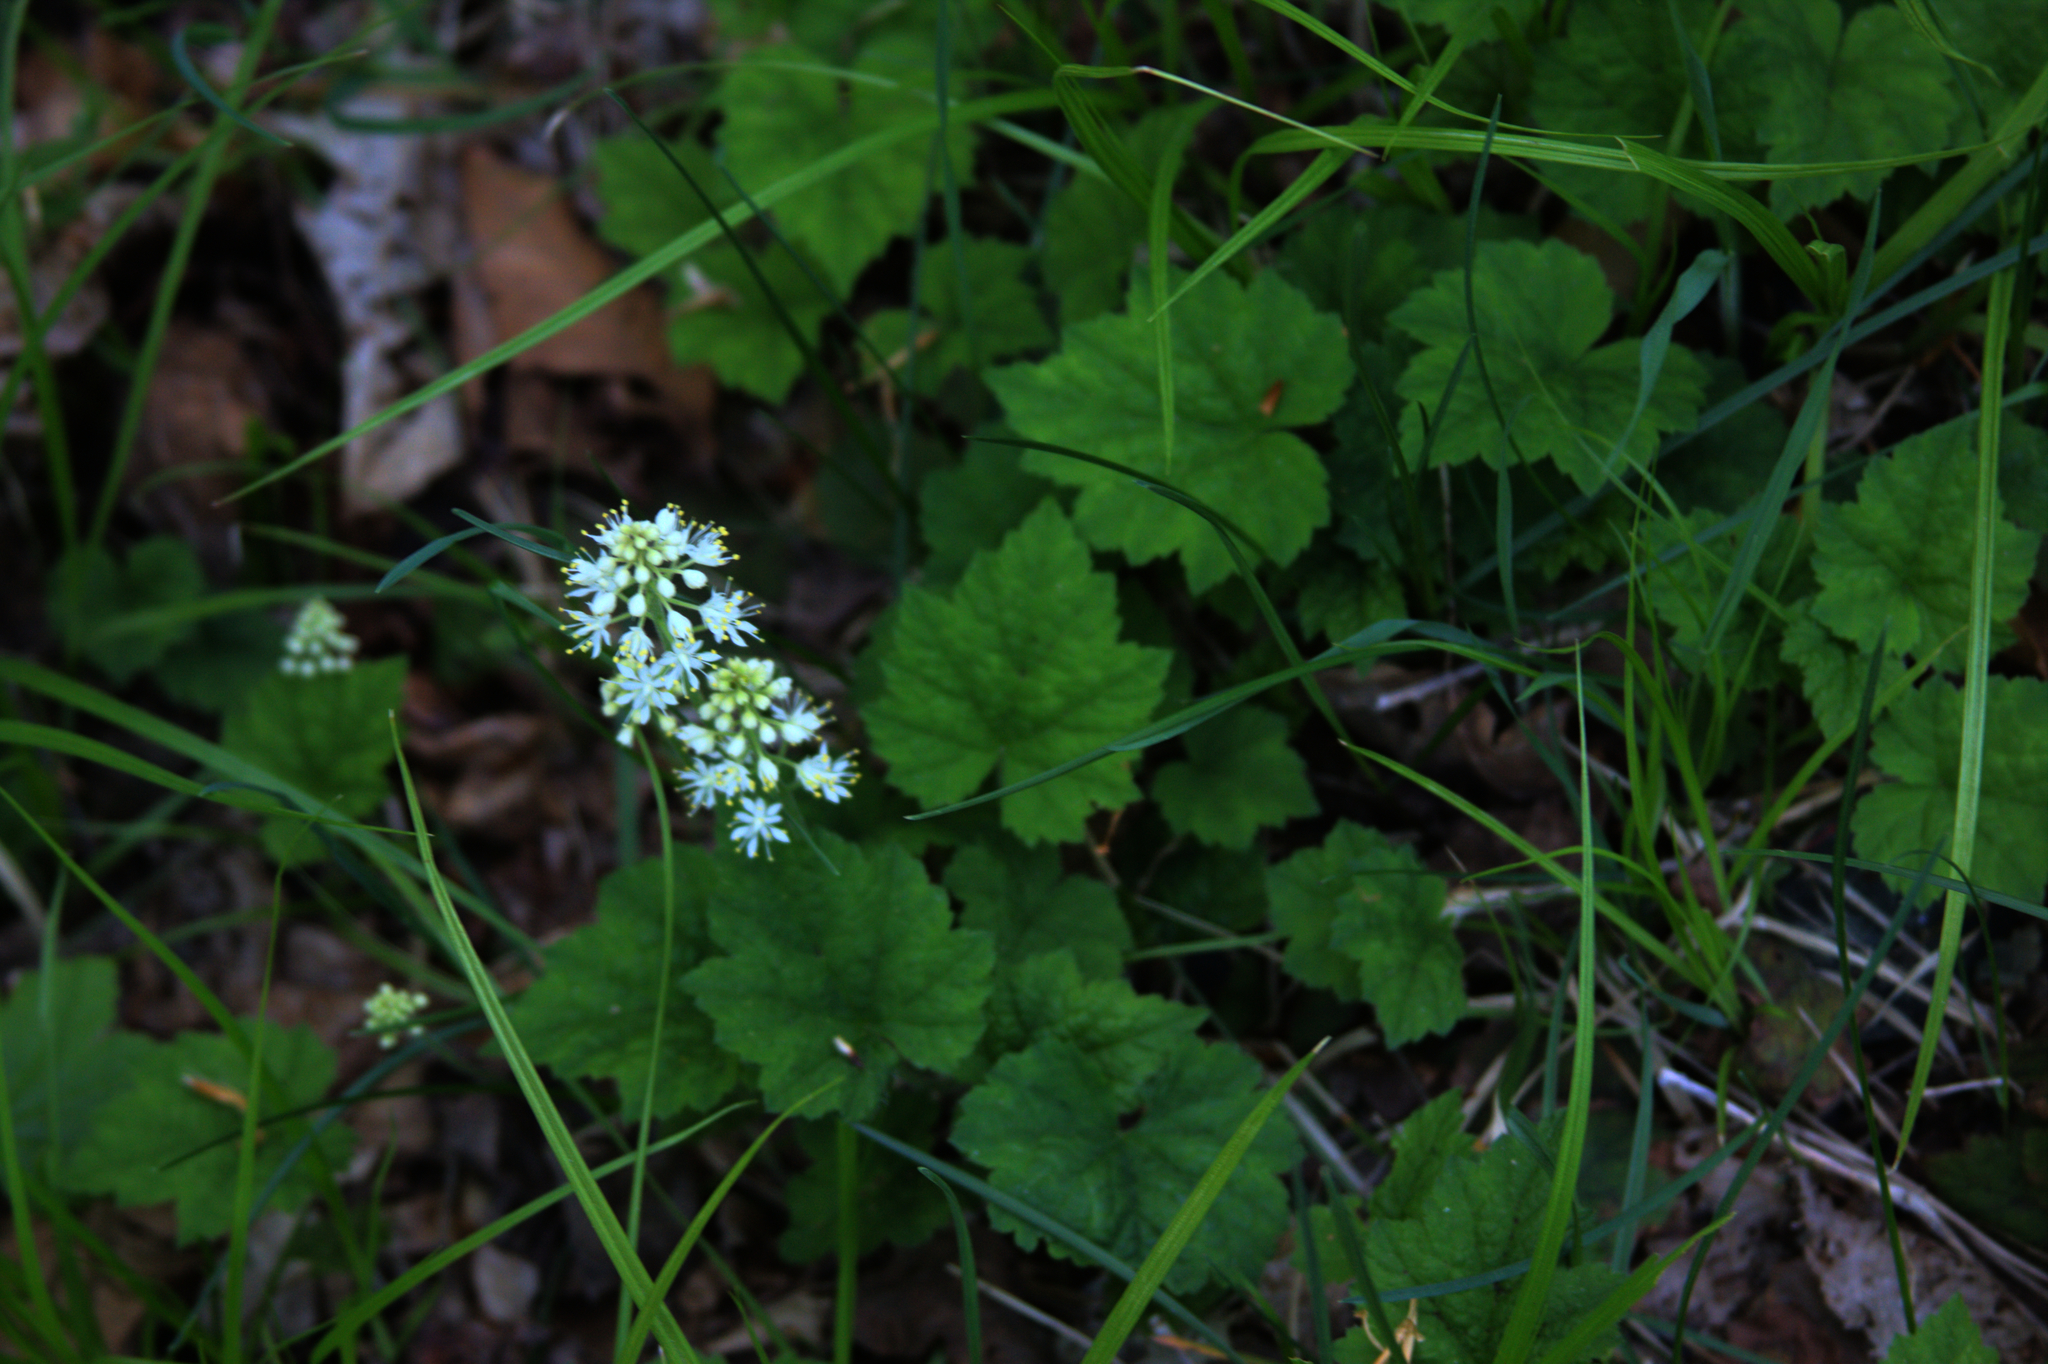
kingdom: Plantae
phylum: Tracheophyta
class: Magnoliopsida
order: Saxifragales
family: Saxifragaceae
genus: Tiarella
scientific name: Tiarella stolonifera
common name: Stoloniferous foamflower
